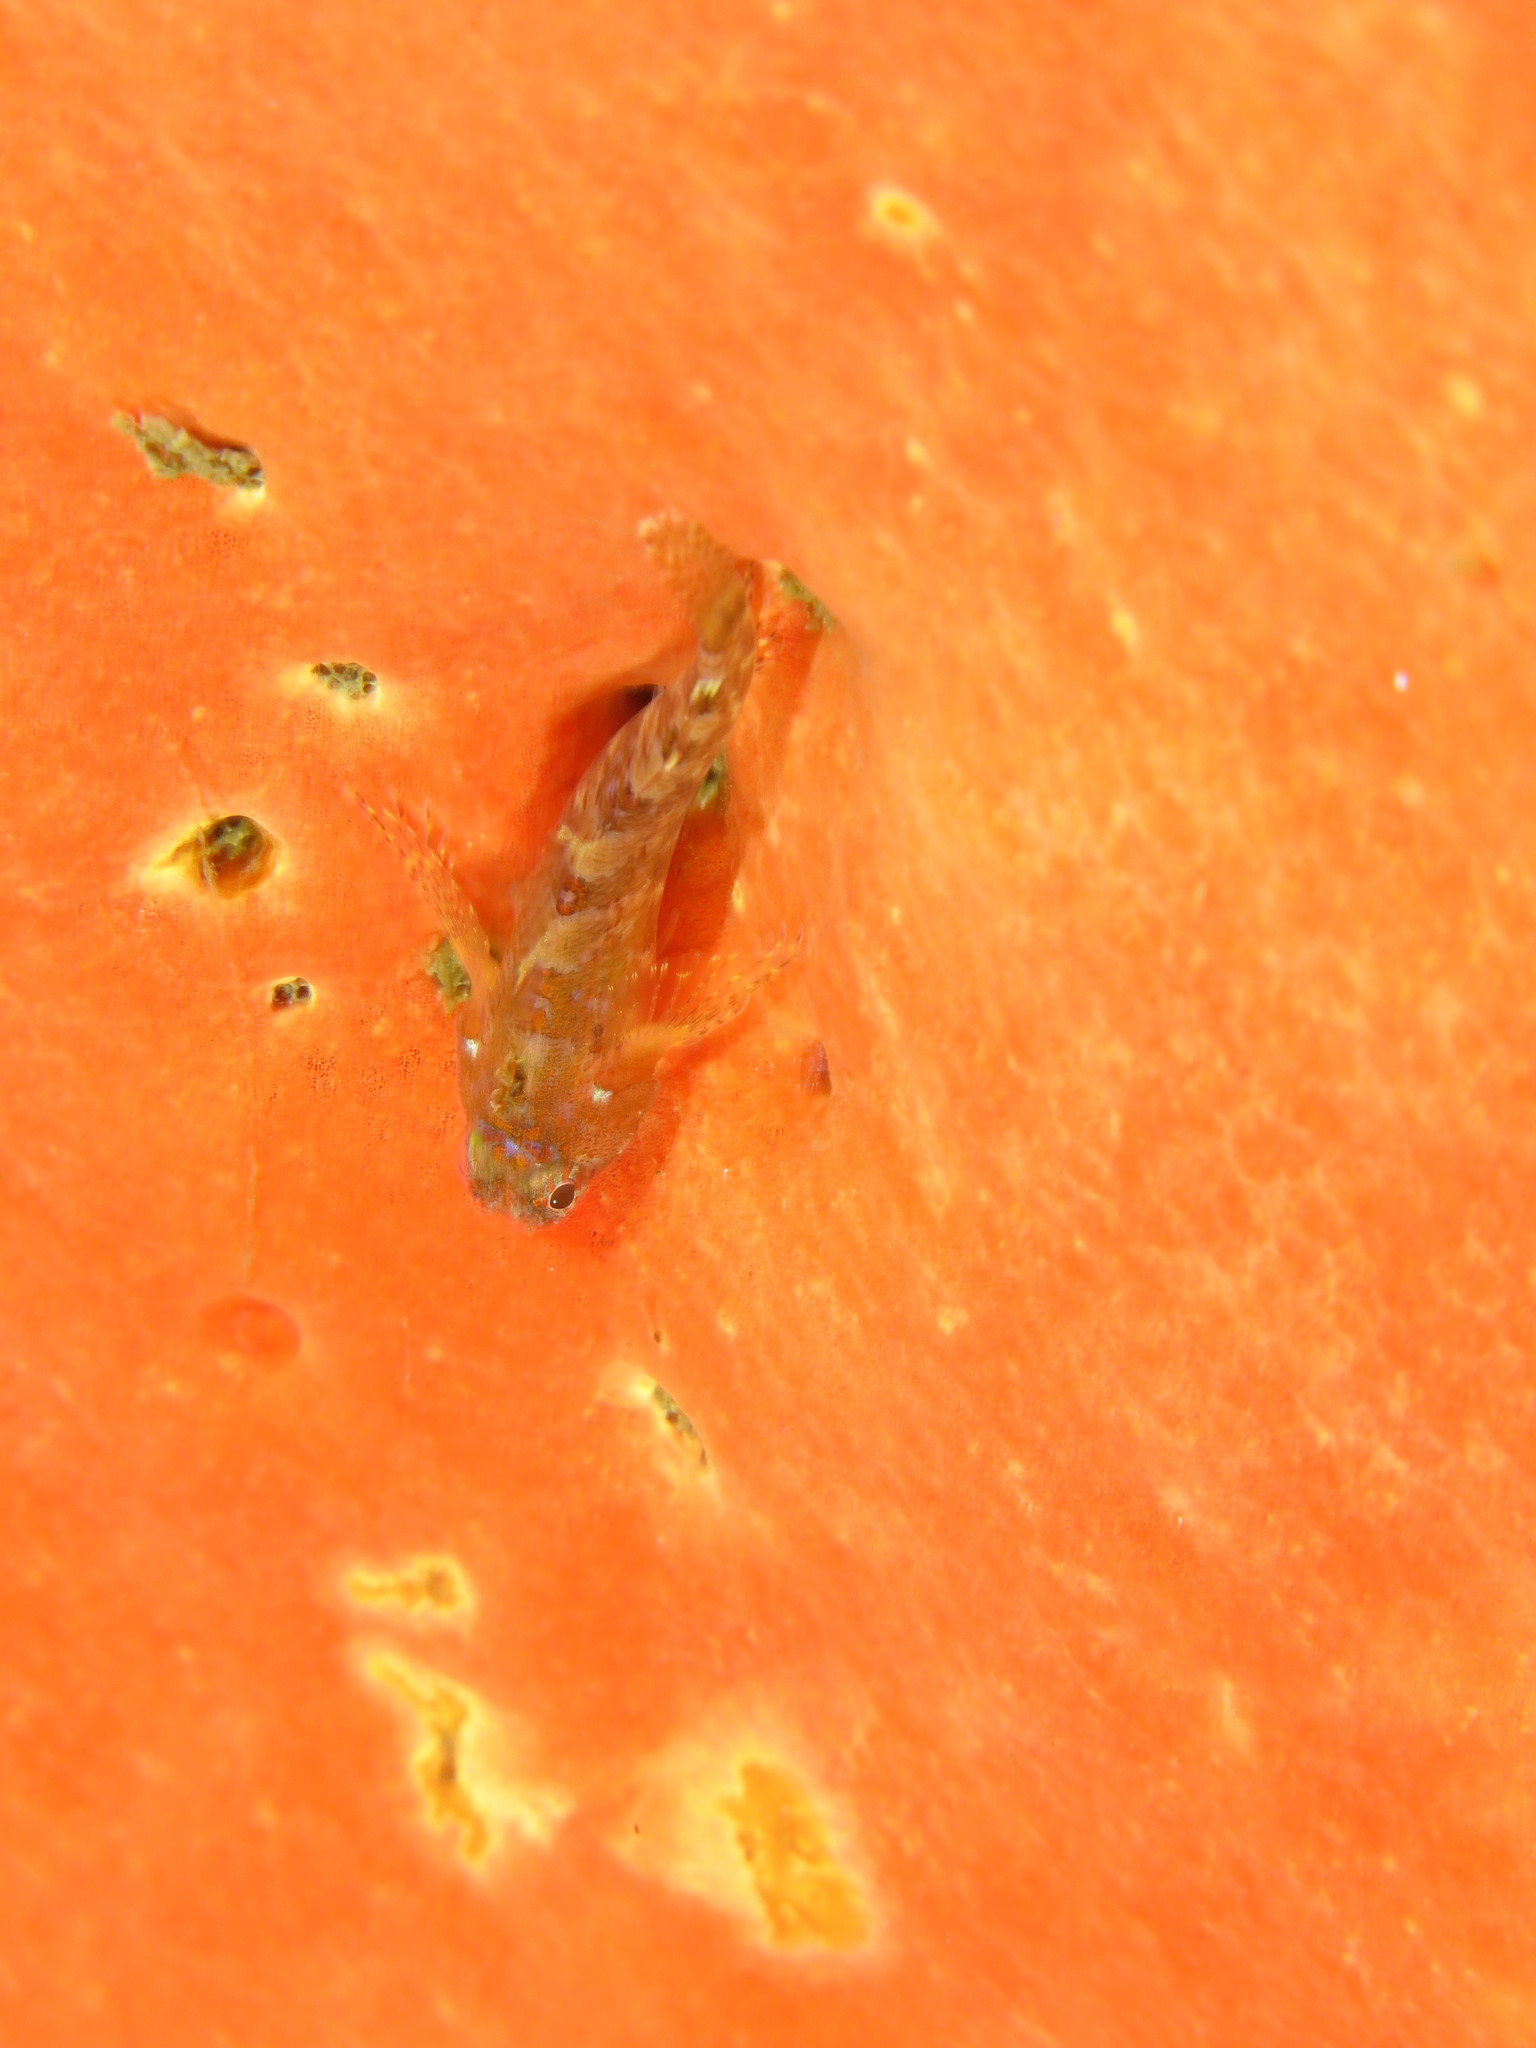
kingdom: Animalia
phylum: Chordata
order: Perciformes
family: Tripterygiidae
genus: Cremnochorites
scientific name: Cremnochorites capensis
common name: Cape triplefin
